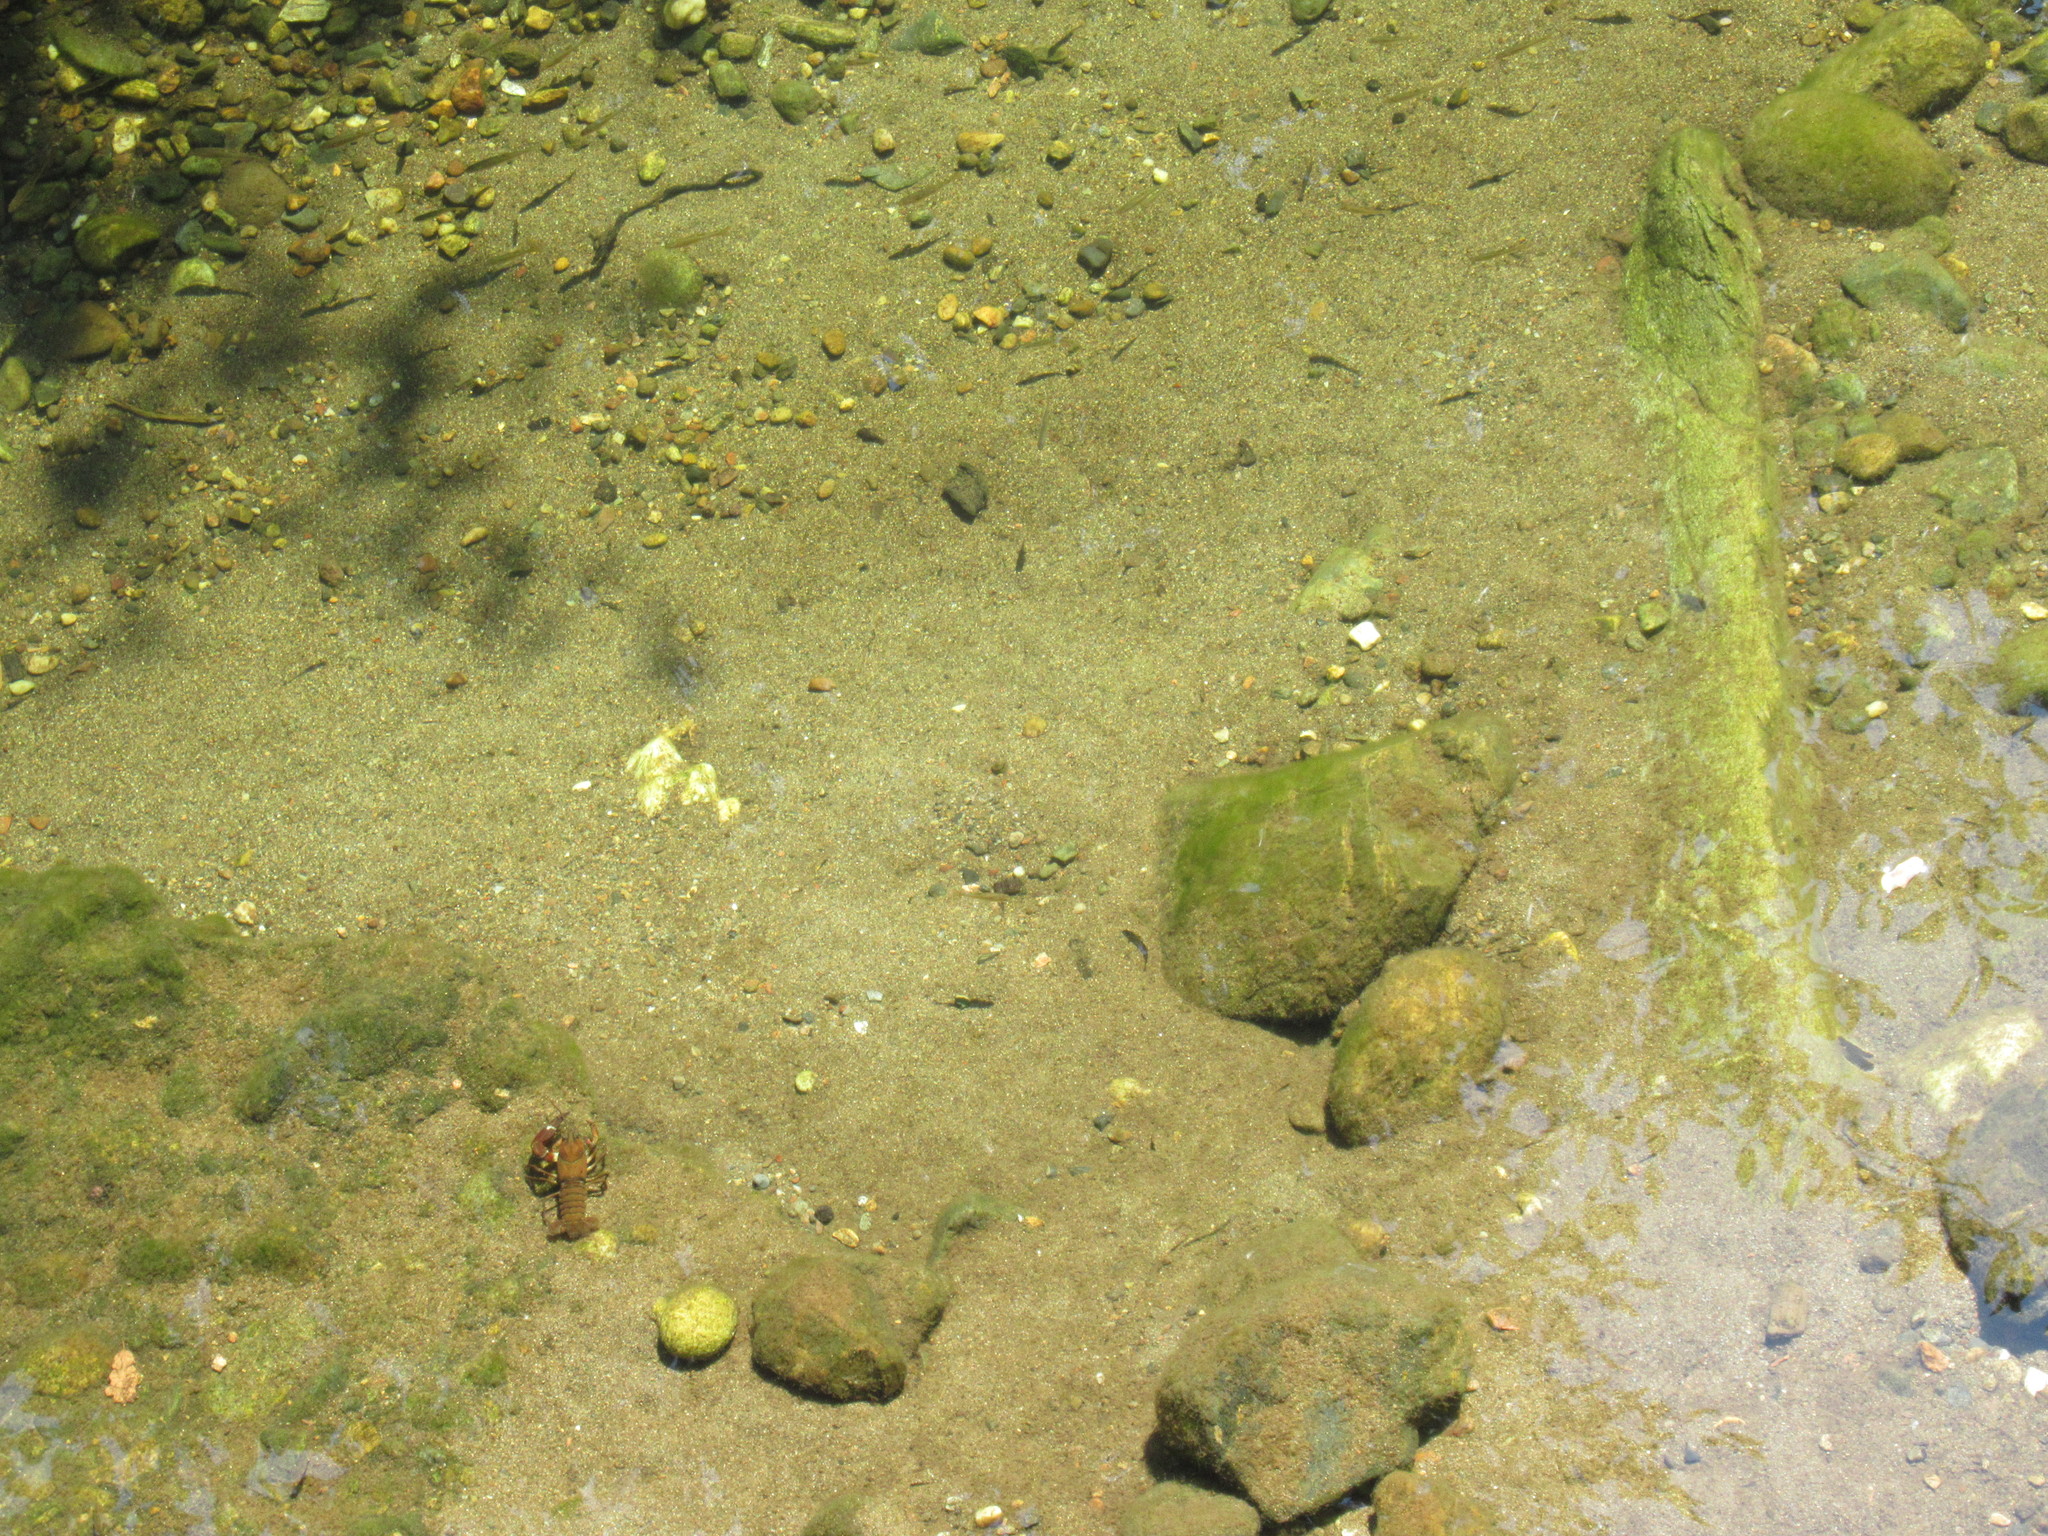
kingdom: Animalia
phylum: Arthropoda
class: Malacostraca
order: Decapoda
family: Astacidae
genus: Pacifastacus
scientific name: Pacifastacus leniusculus
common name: Signal crayfish
